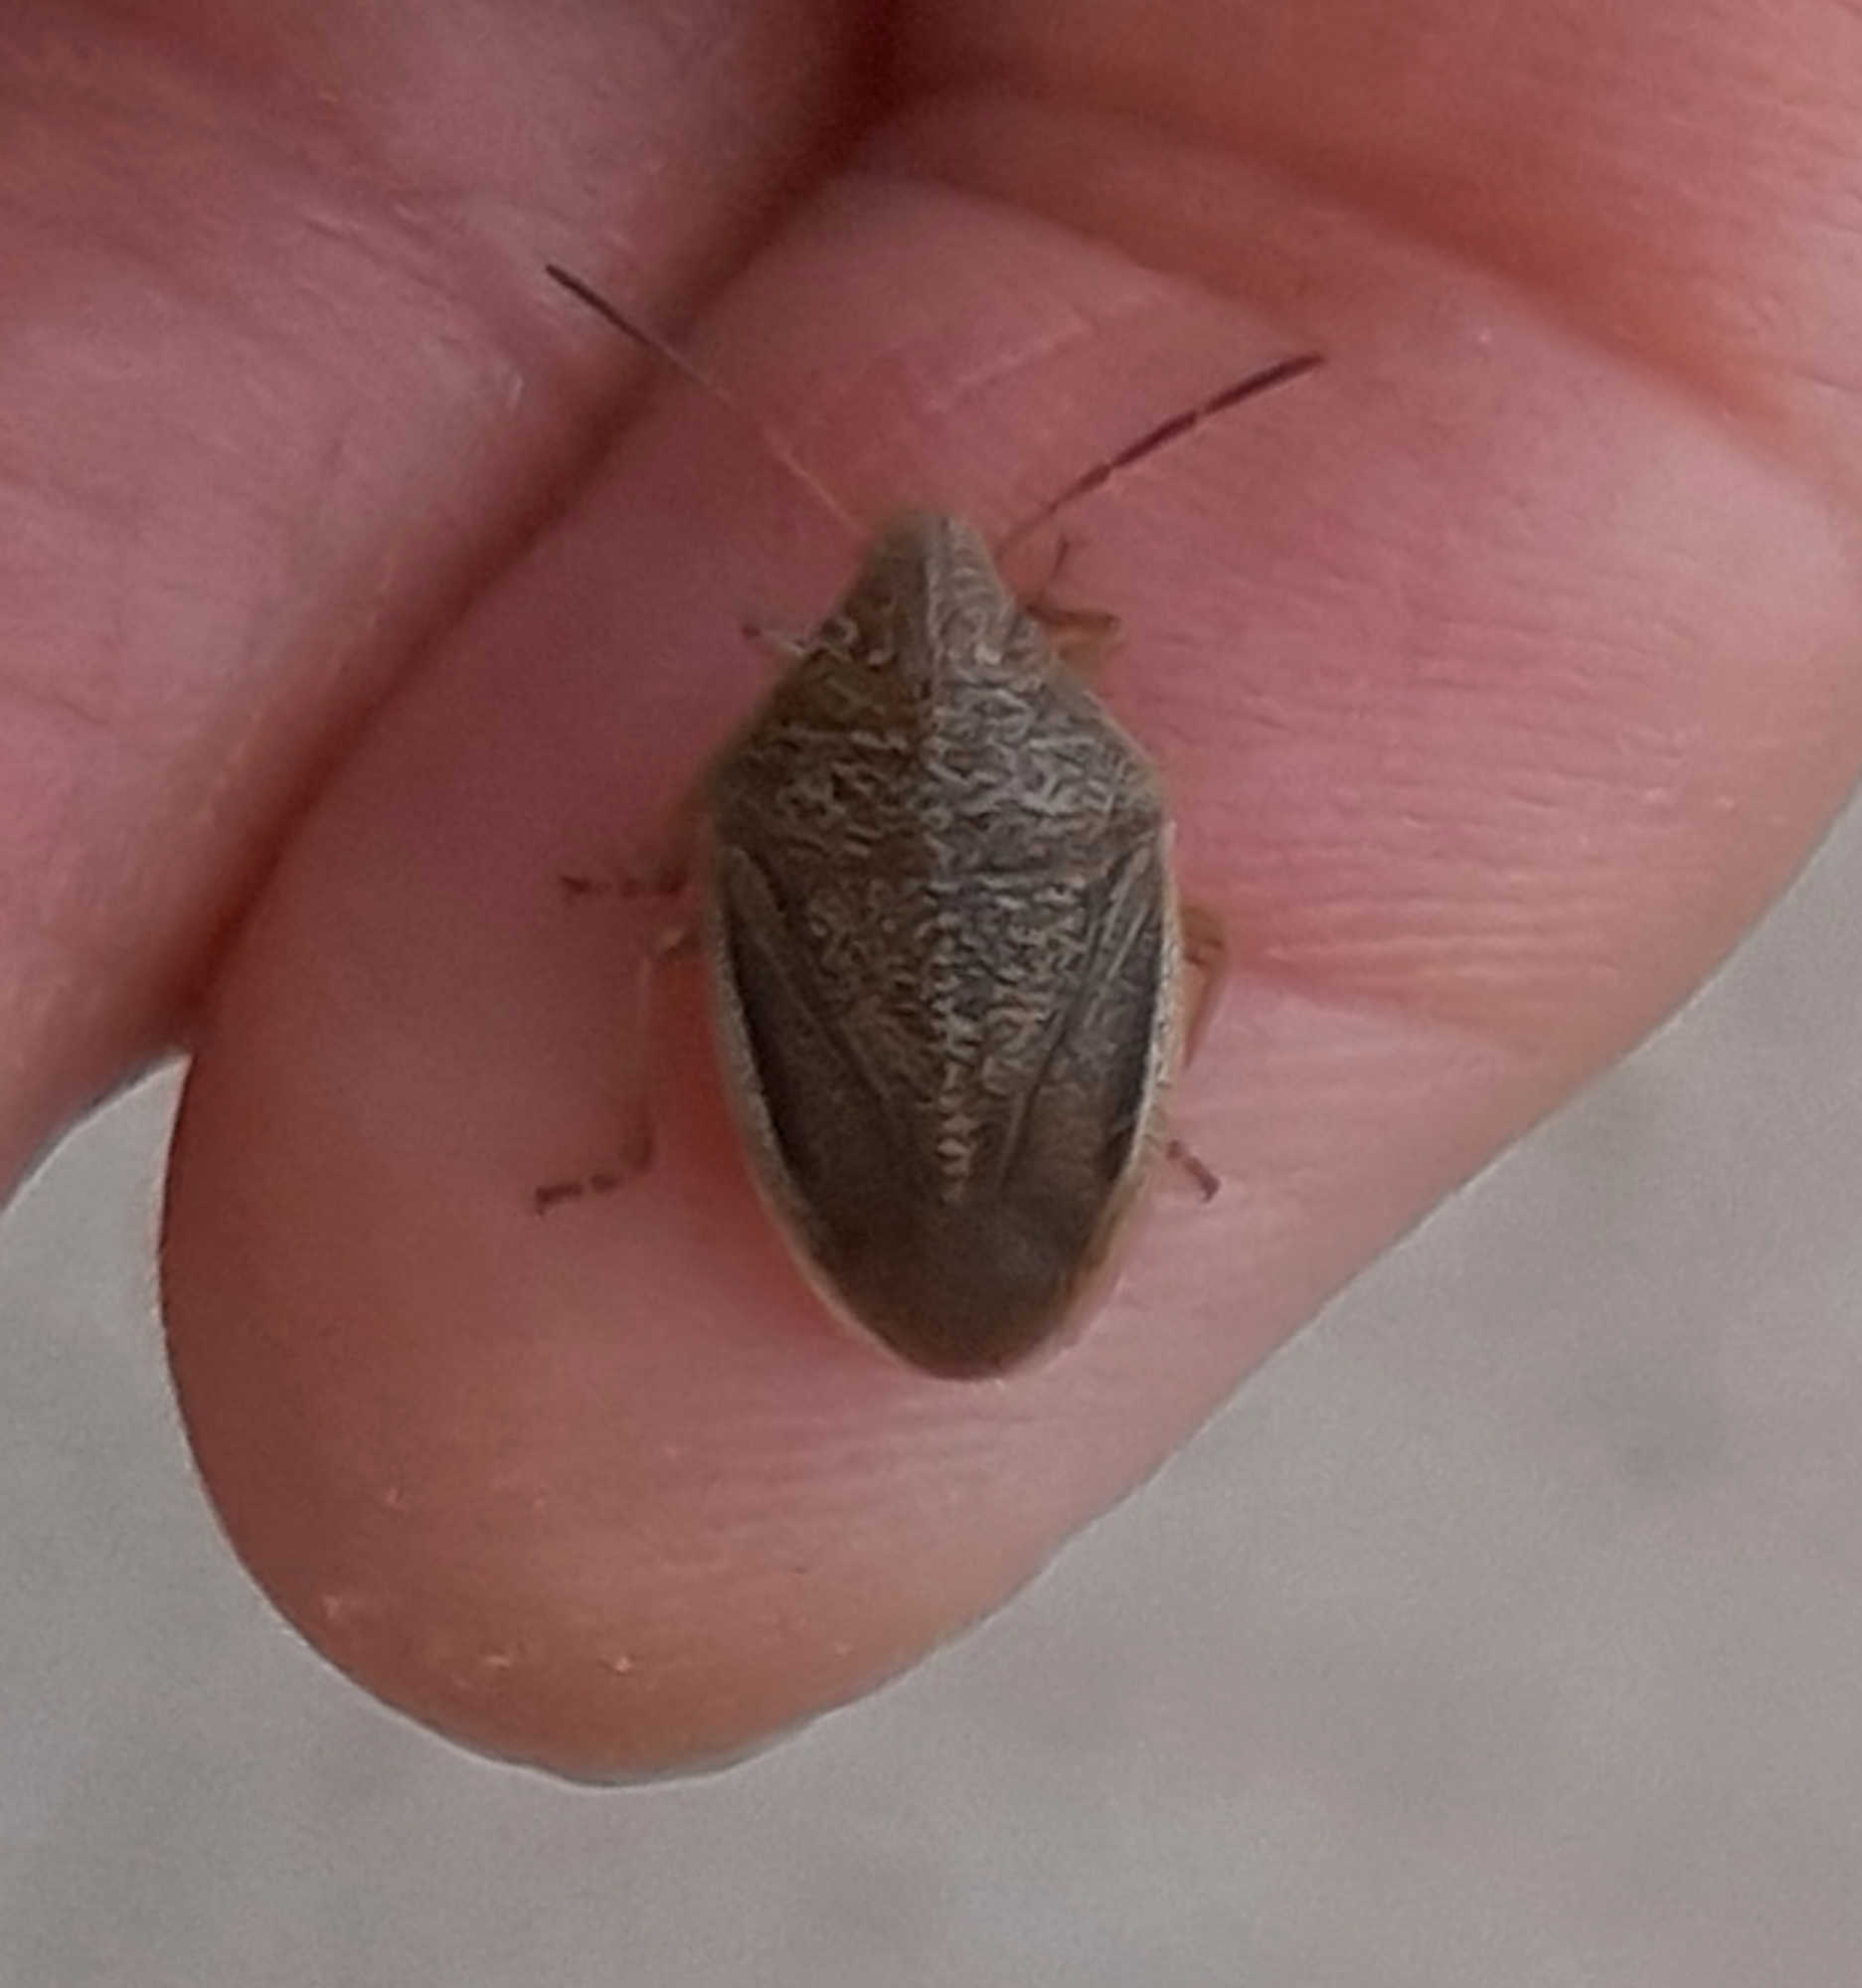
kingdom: Animalia
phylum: Arthropoda
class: Insecta
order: Hemiptera
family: Pentatomidae
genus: Chlorochroa
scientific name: Chlorochroa saucia
